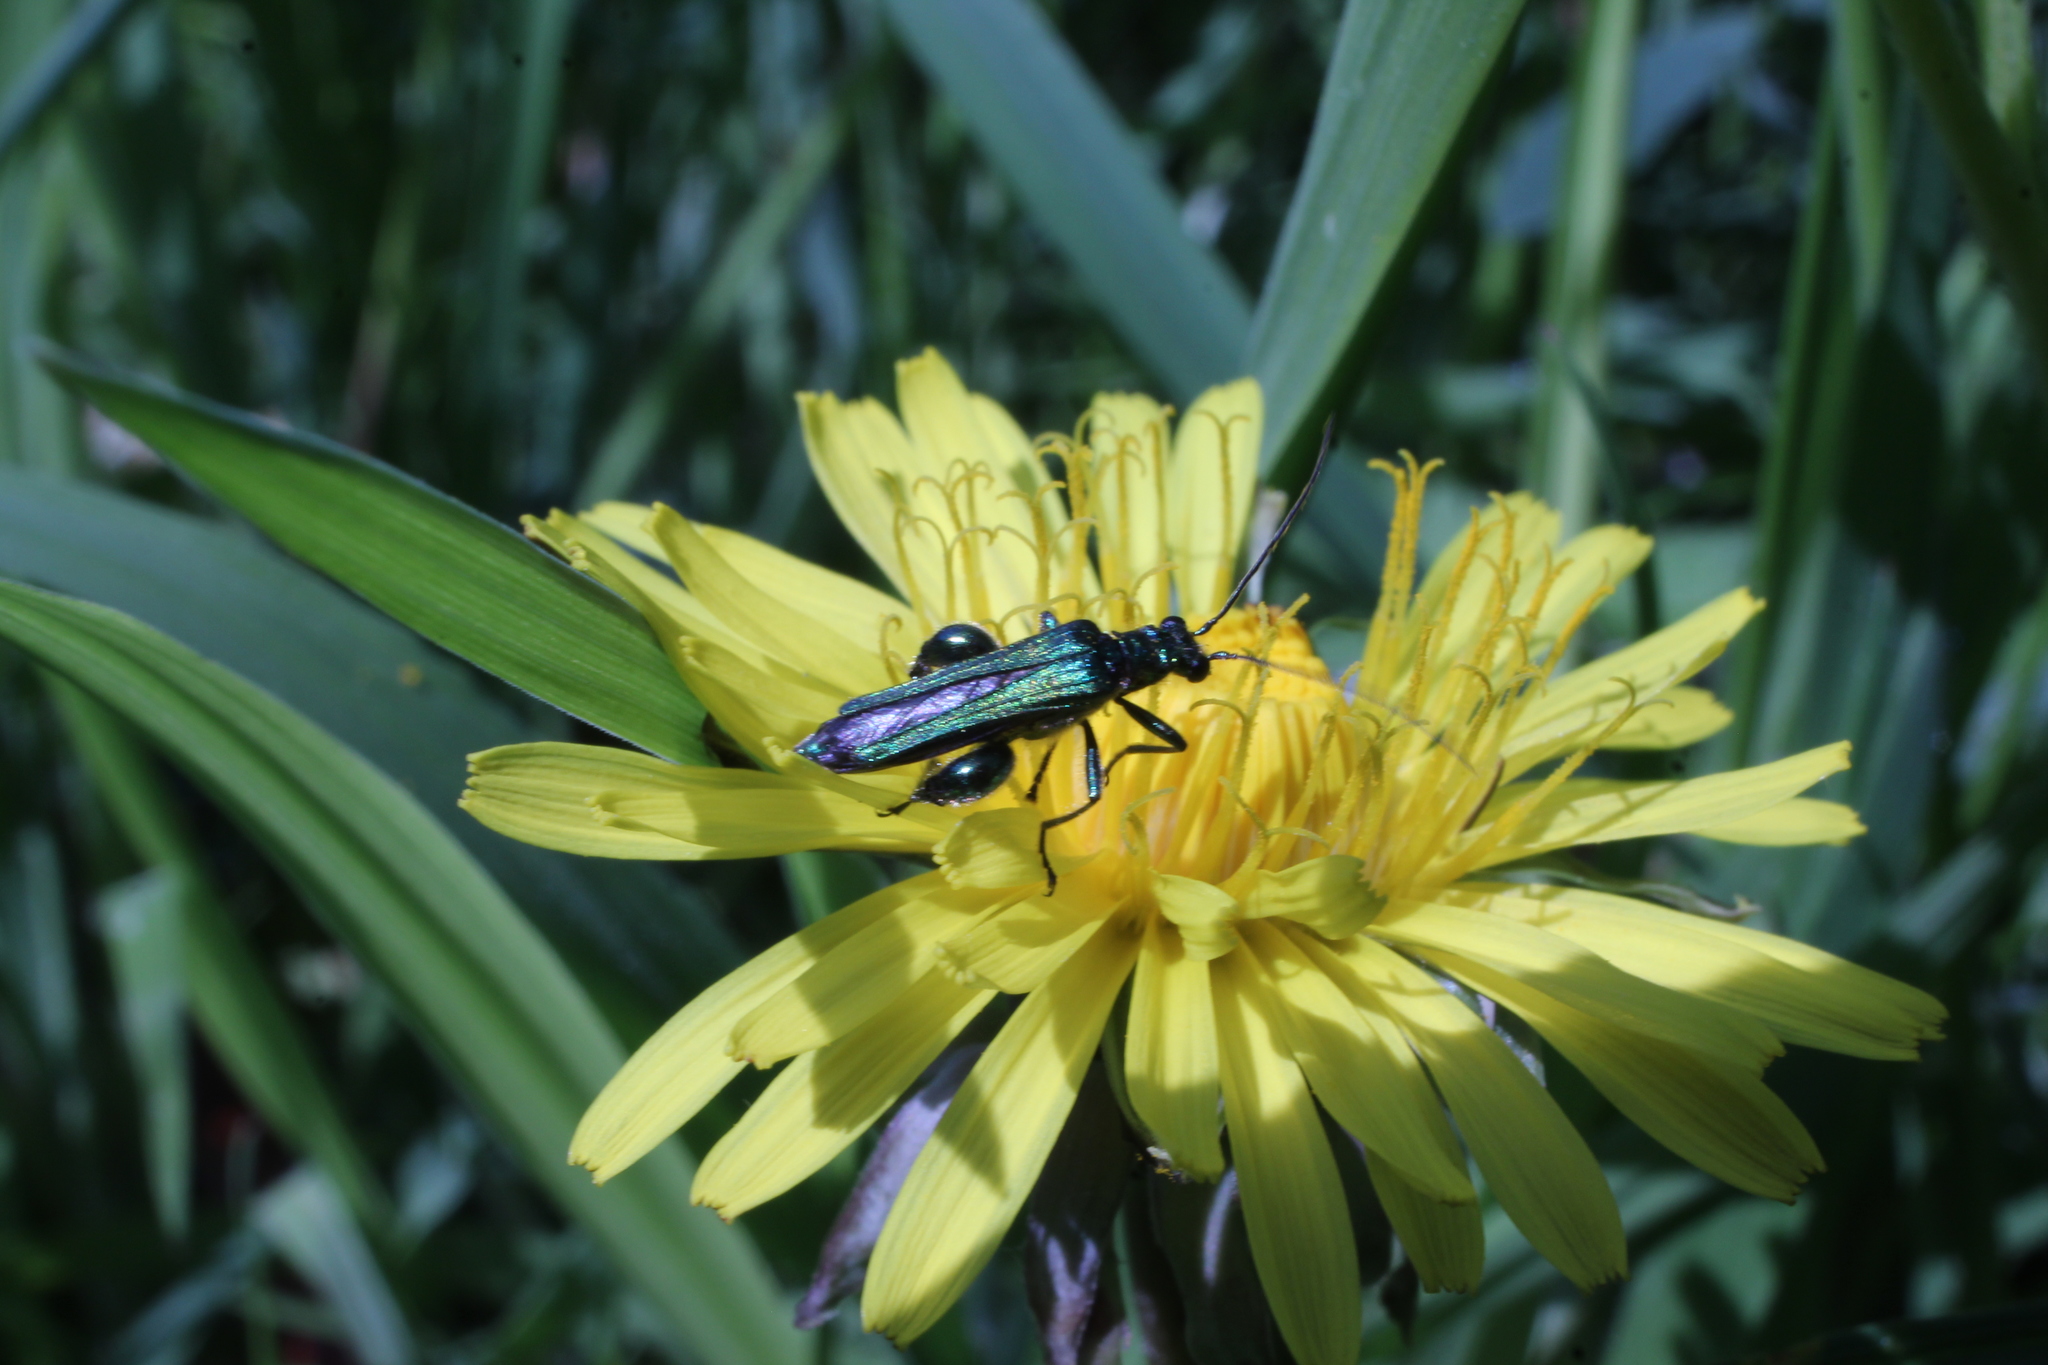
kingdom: Animalia
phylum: Arthropoda
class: Insecta
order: Coleoptera
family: Oedemeridae
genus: Oedemera
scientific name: Oedemera nobilis
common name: Swollen-thighed beetle
